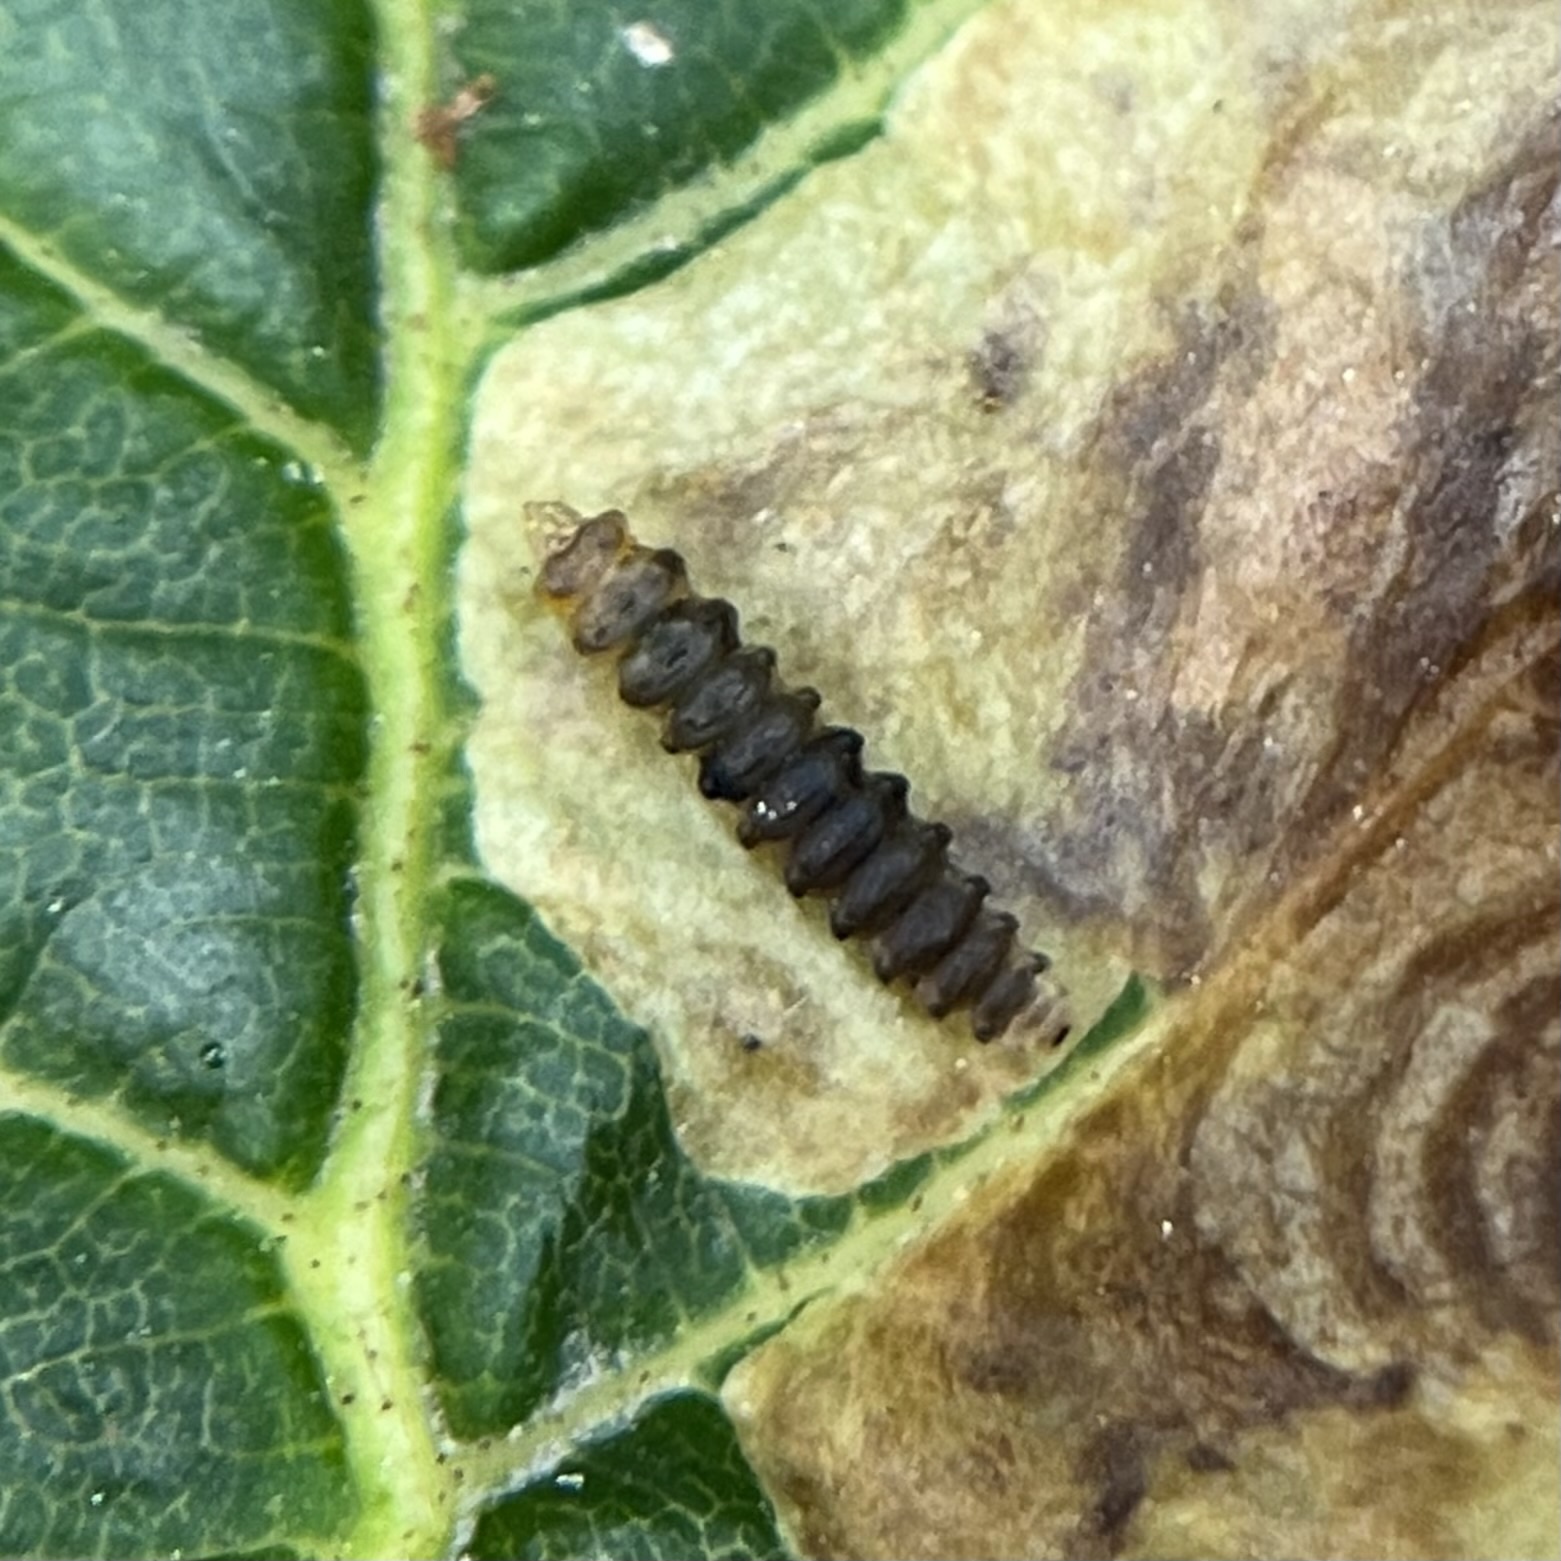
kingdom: Animalia
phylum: Arthropoda
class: Insecta
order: Lepidoptera
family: Gracillariidae
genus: Cameraria
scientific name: Cameraria ohridella
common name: Horse-chestnut leaf-miner
